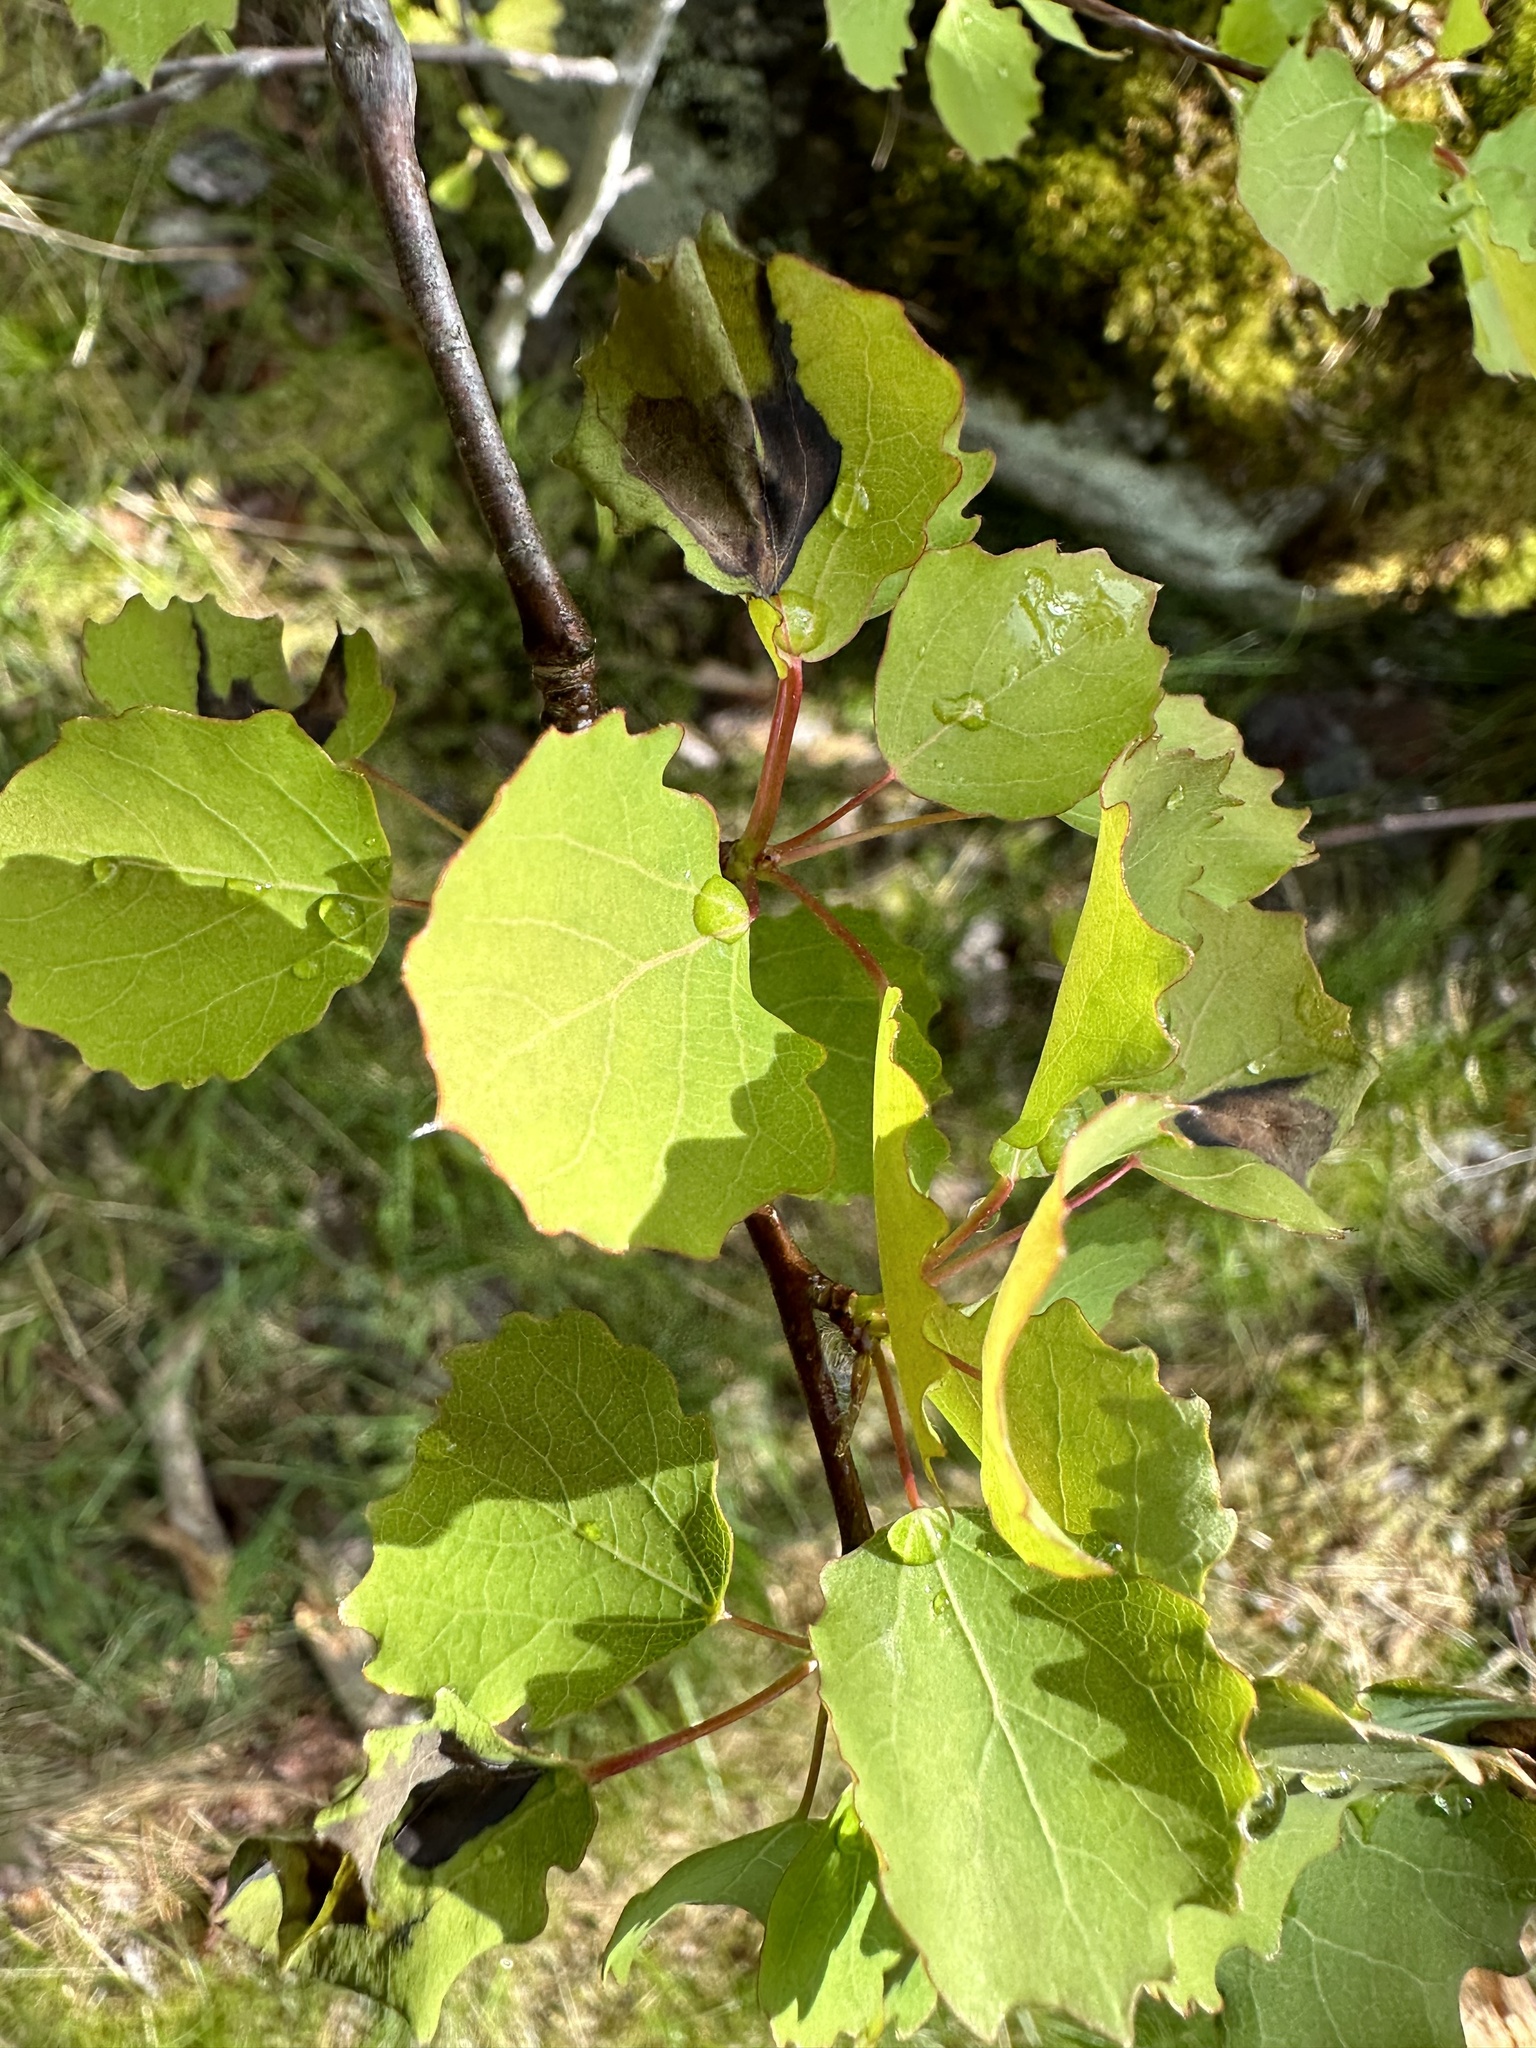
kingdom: Plantae
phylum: Tracheophyta
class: Magnoliopsida
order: Malpighiales
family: Salicaceae
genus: Populus
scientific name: Populus tremula
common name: European aspen
